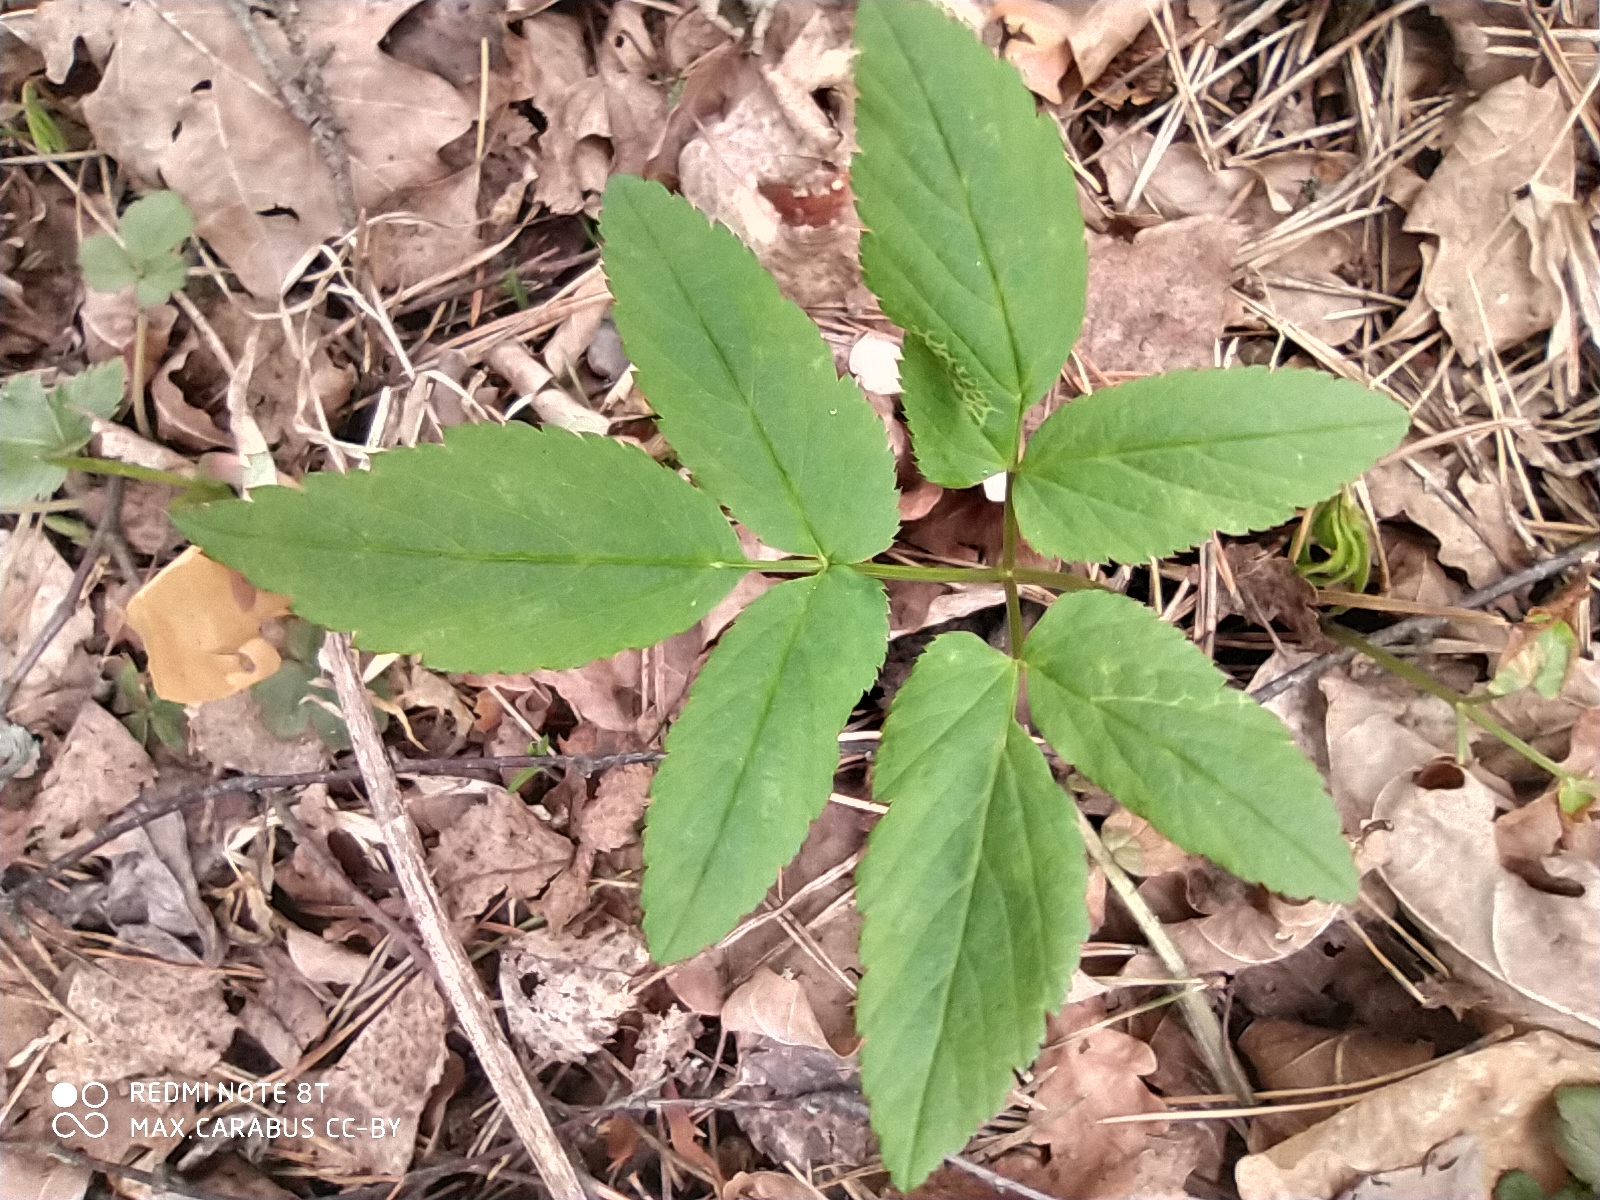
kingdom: Plantae
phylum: Tracheophyta
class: Magnoliopsida
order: Apiales
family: Apiaceae
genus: Aegopodium
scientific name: Aegopodium podagraria
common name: Ground-elder
